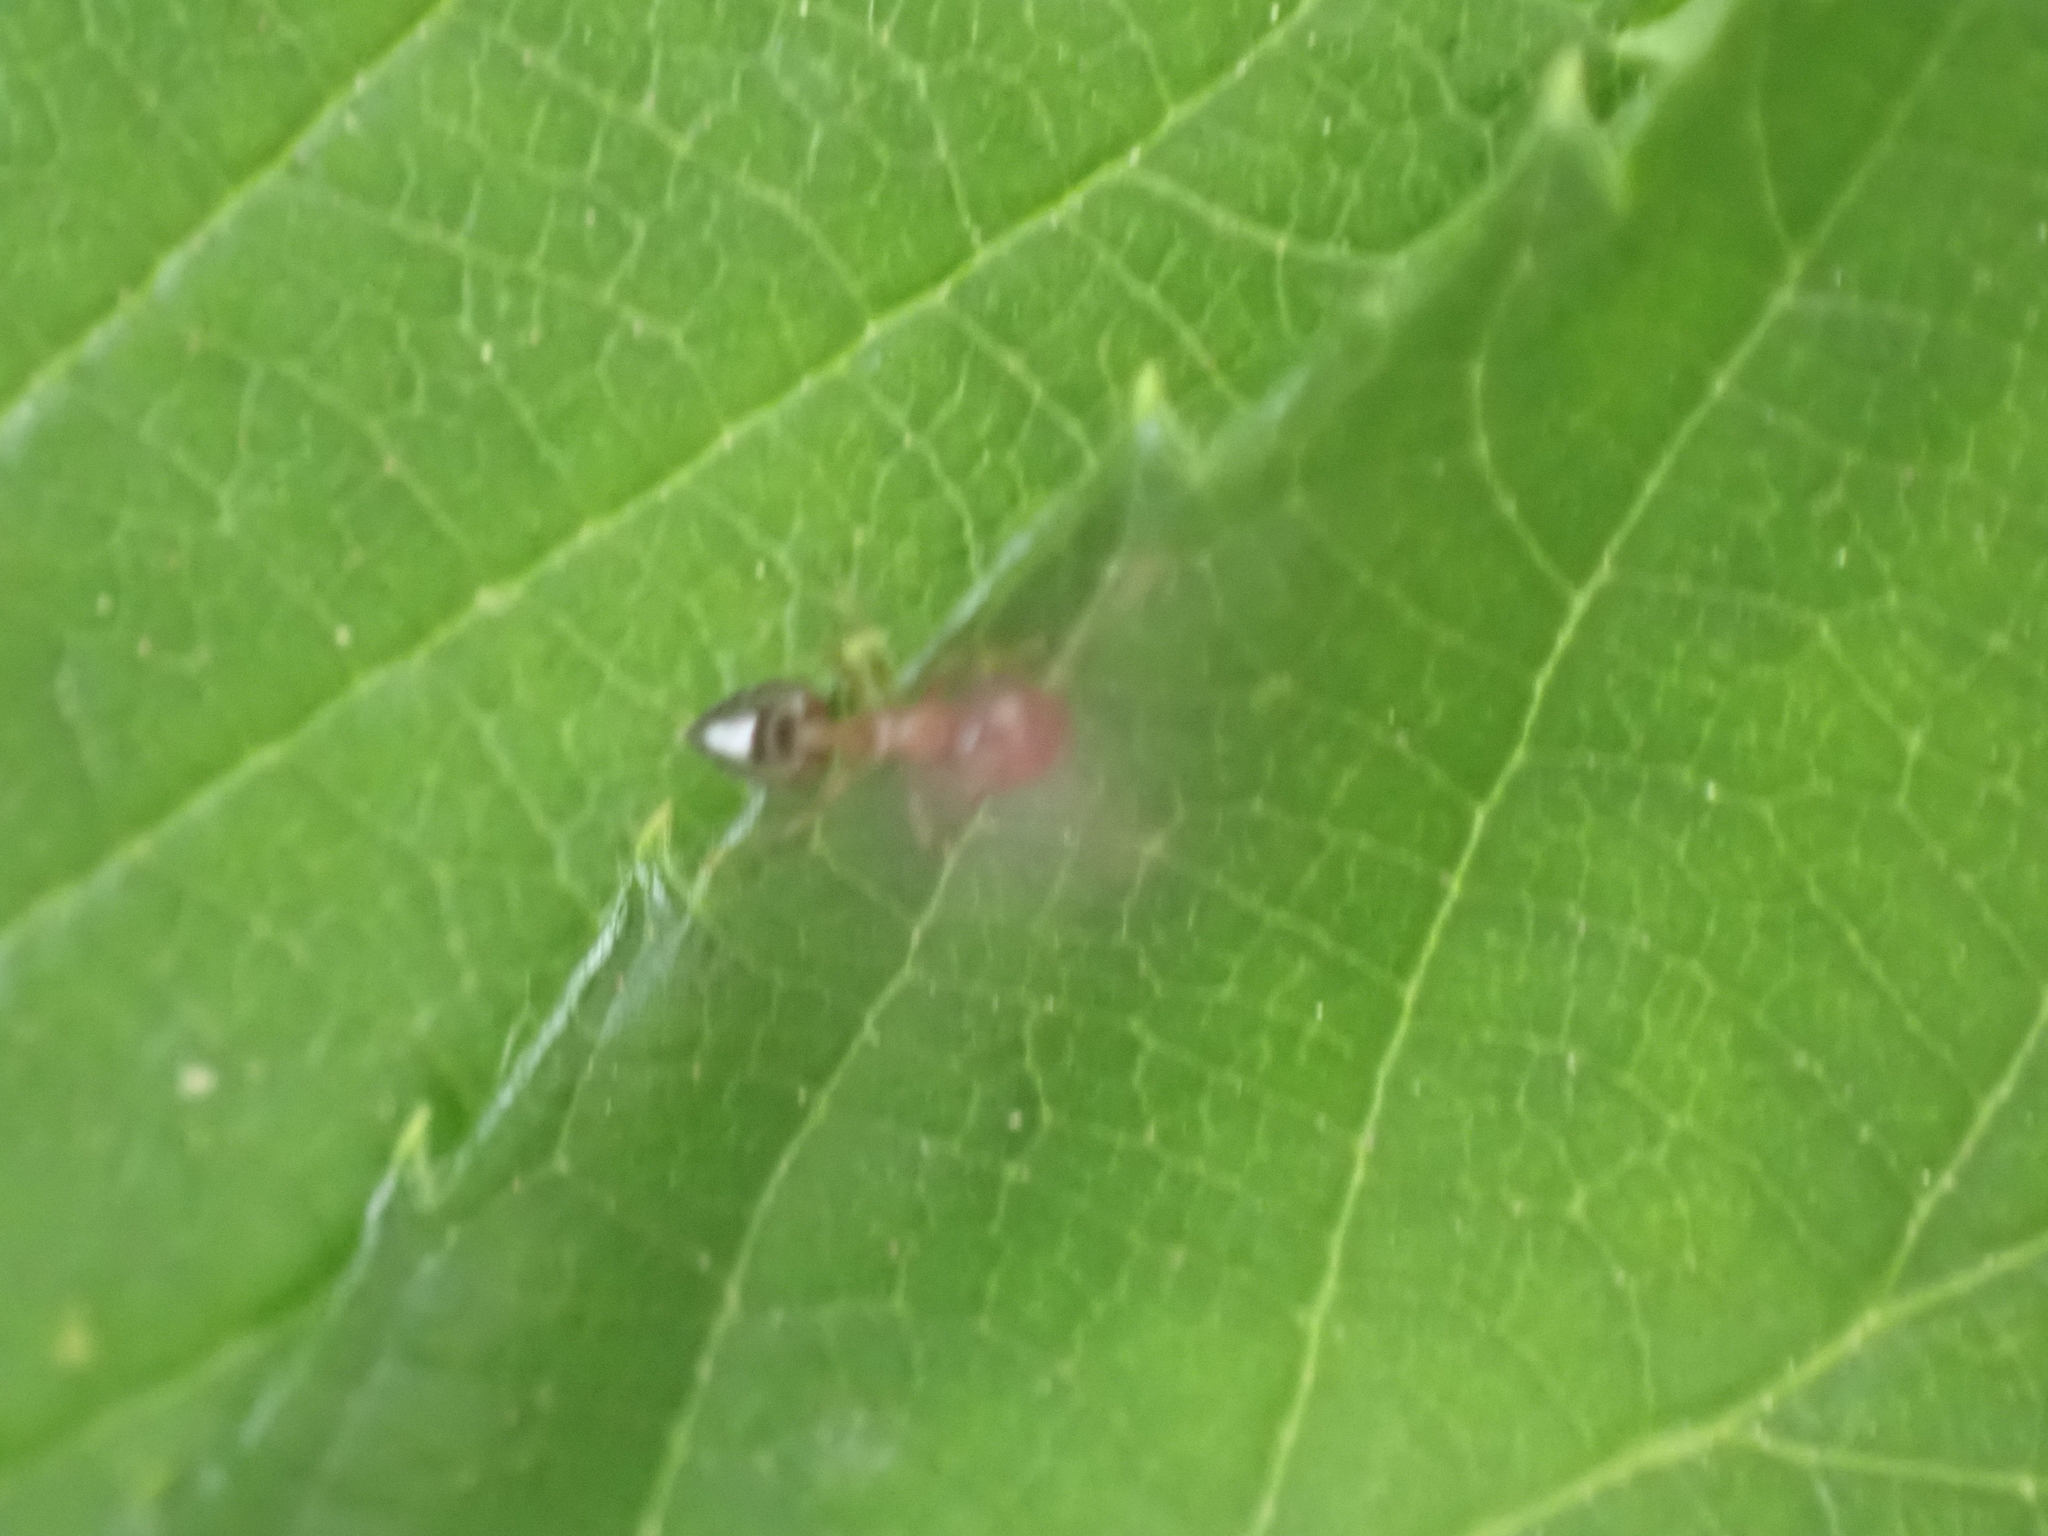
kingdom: Animalia
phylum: Arthropoda
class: Insecta
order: Hymenoptera
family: Formicidae
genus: Crematogaster
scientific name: Crematogaster ashmeadi
